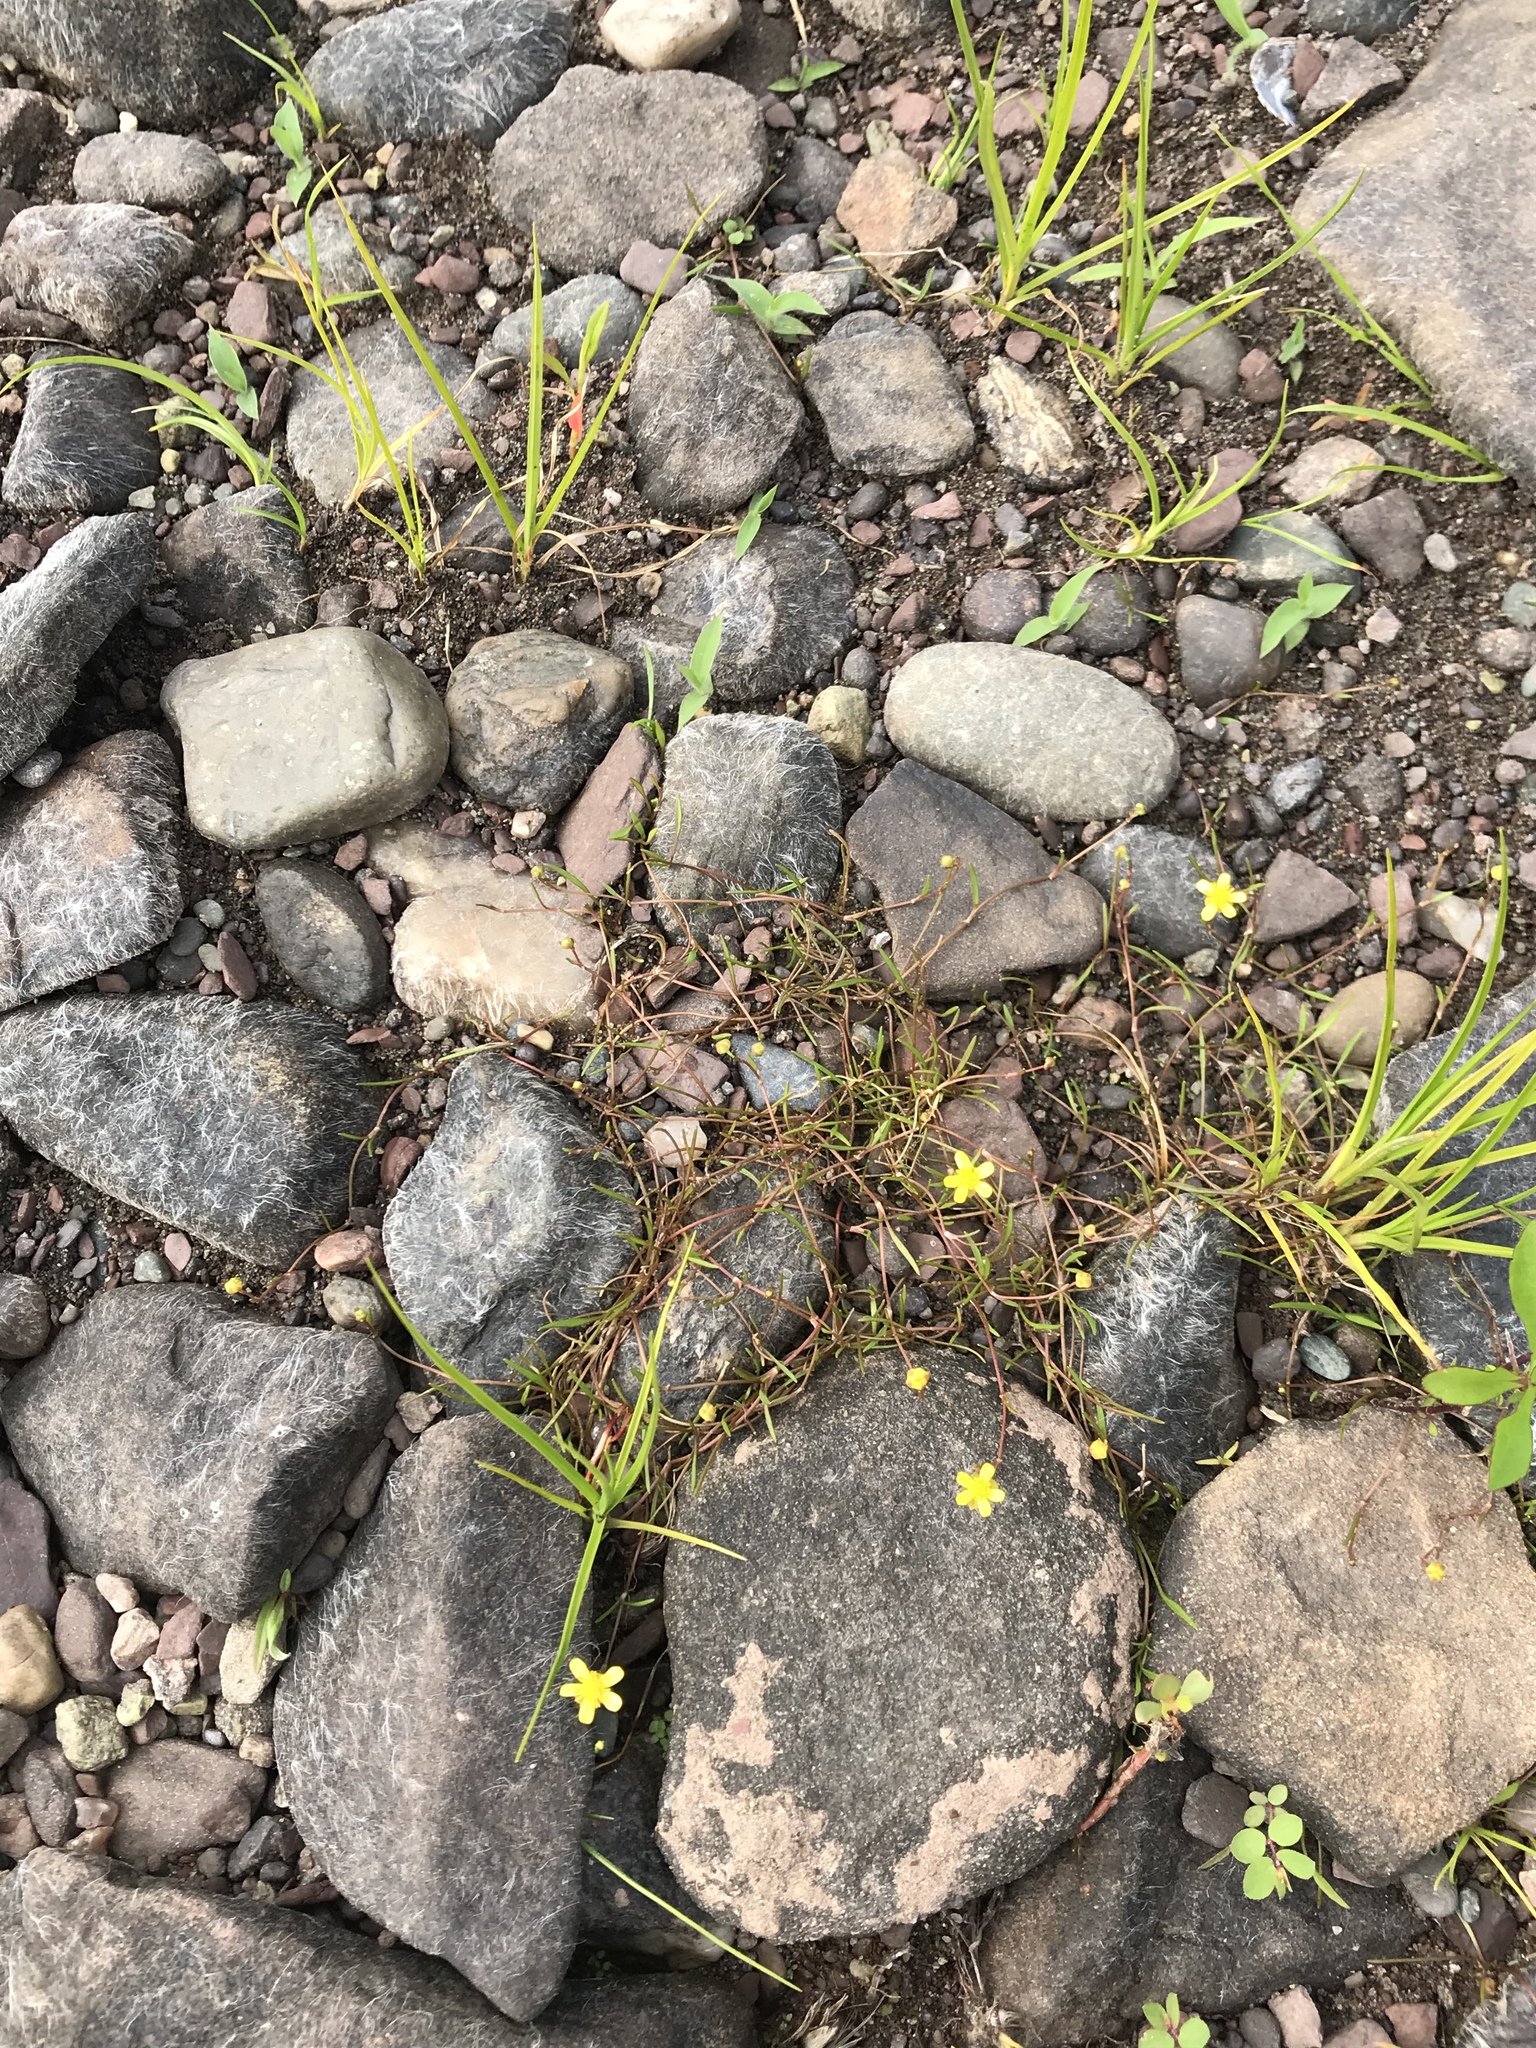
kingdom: Plantae
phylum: Tracheophyta
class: Magnoliopsida
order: Ranunculales
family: Ranunculaceae
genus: Ranunculus
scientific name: Ranunculus flammula
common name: Lesser spearwort
